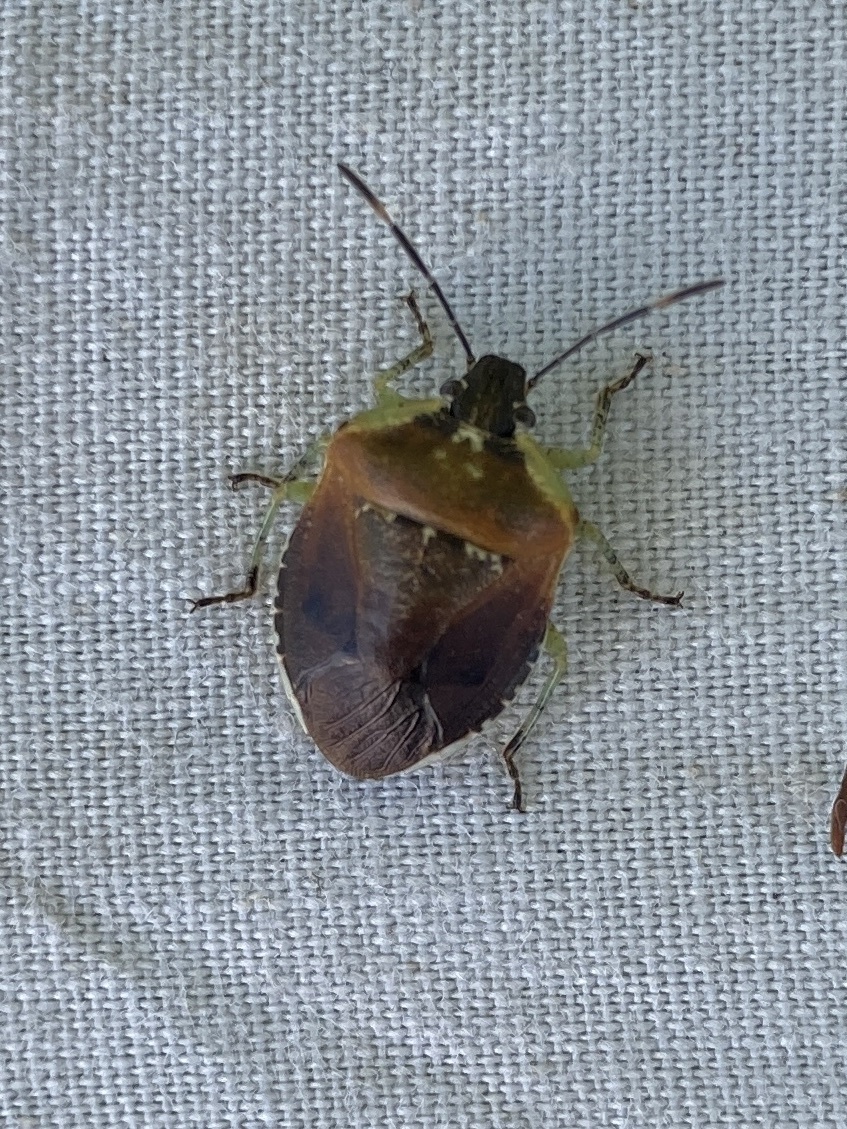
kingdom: Animalia
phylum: Arthropoda
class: Insecta
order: Hemiptera
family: Pentatomidae
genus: Monteithiella
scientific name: Monteithiella
